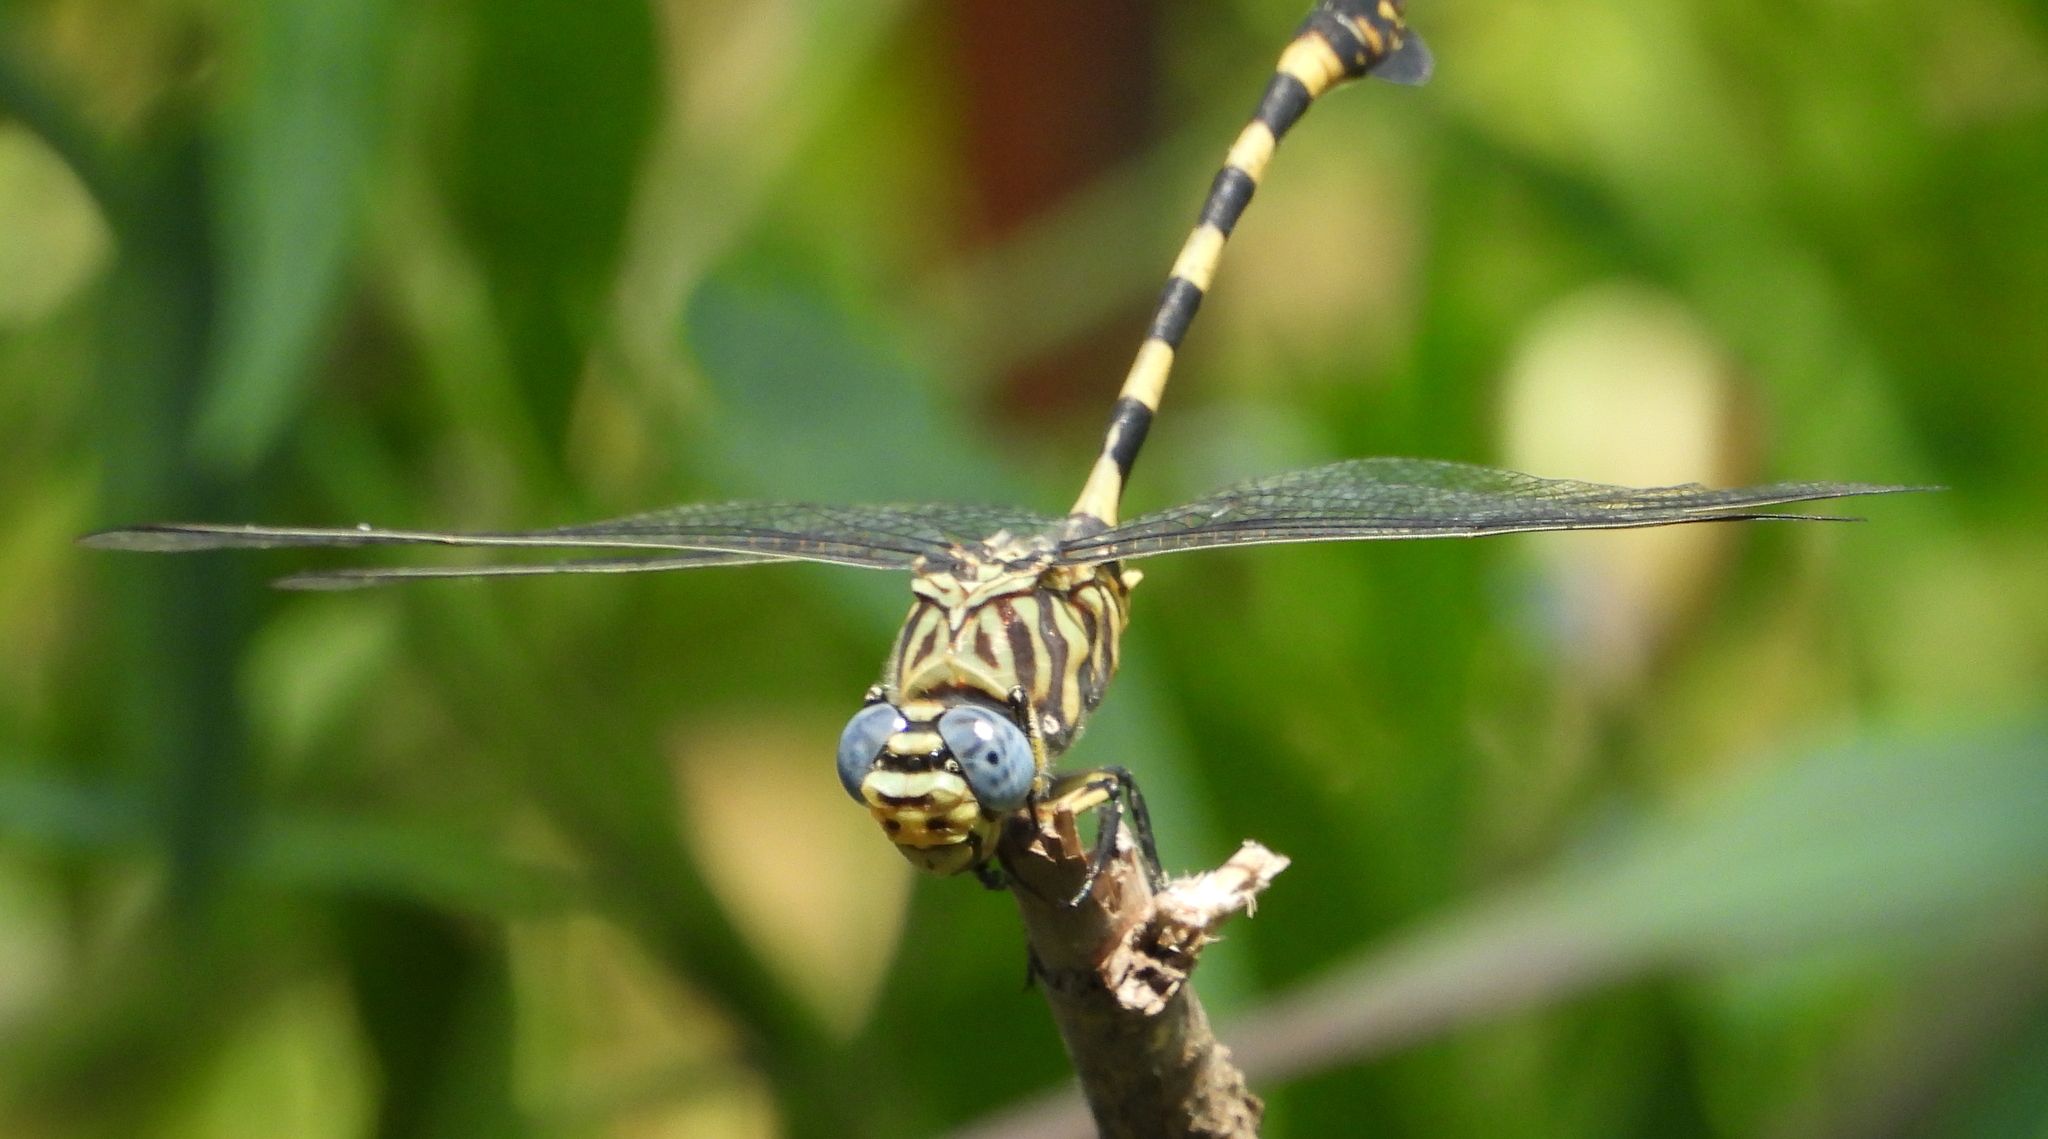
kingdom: Animalia
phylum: Arthropoda
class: Insecta
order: Odonata
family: Gomphidae
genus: Ictinogomphus
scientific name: Ictinogomphus ferox
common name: Common tiger
